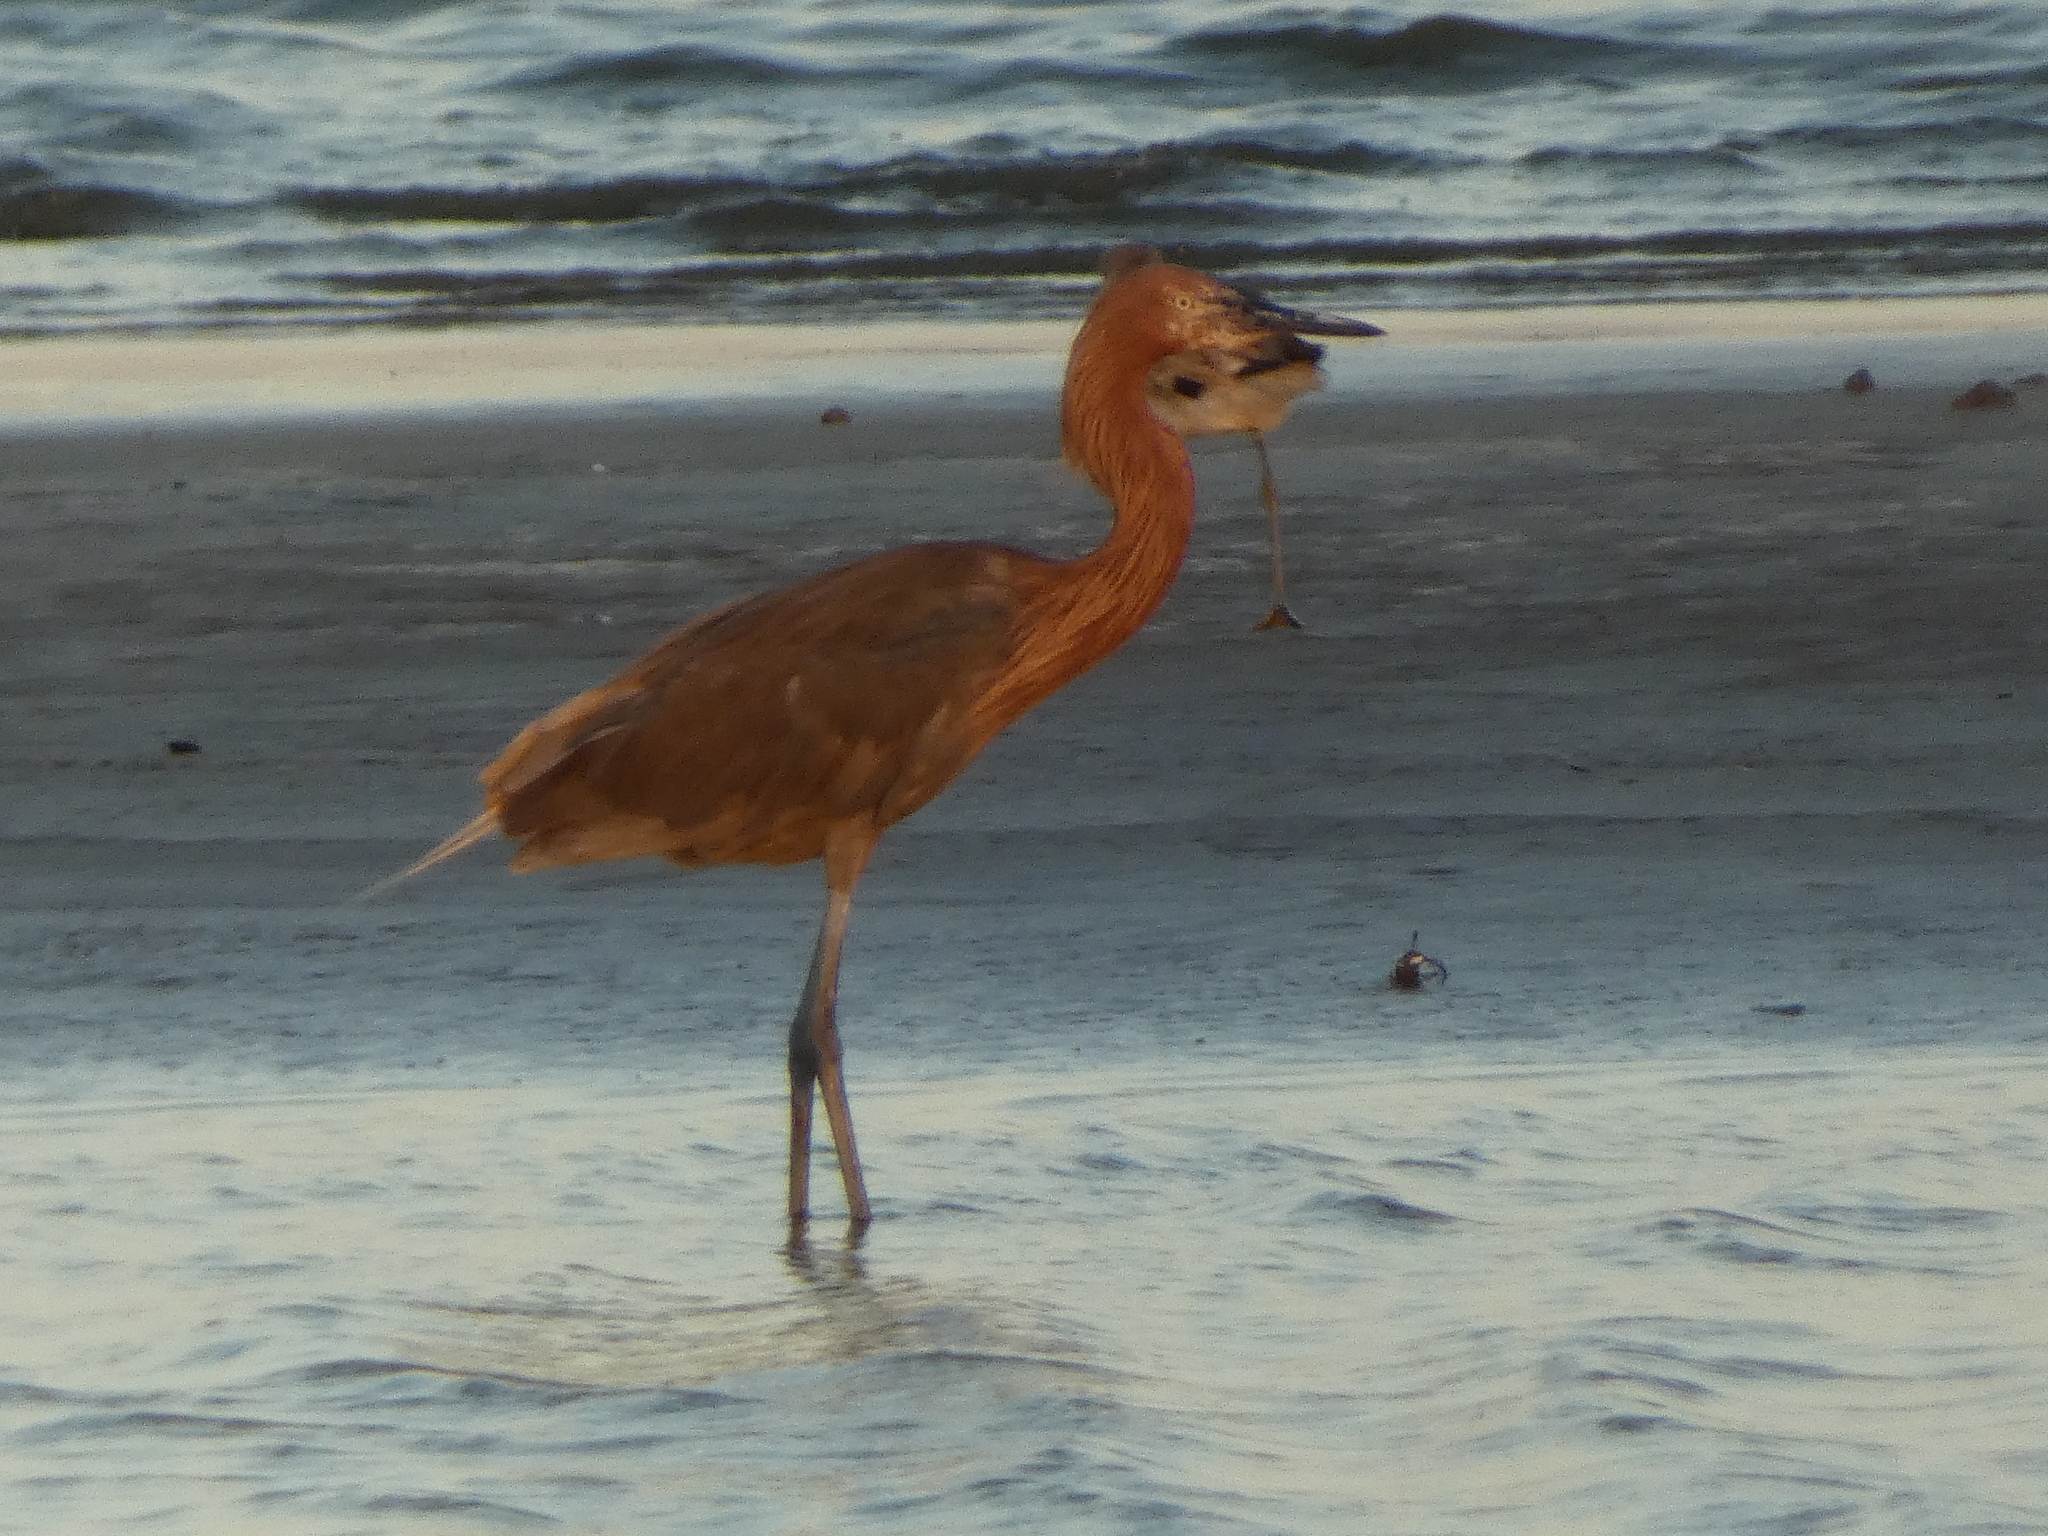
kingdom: Animalia
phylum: Chordata
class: Aves
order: Pelecaniformes
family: Ardeidae
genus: Egretta
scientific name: Egretta rufescens
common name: Reddish egret
